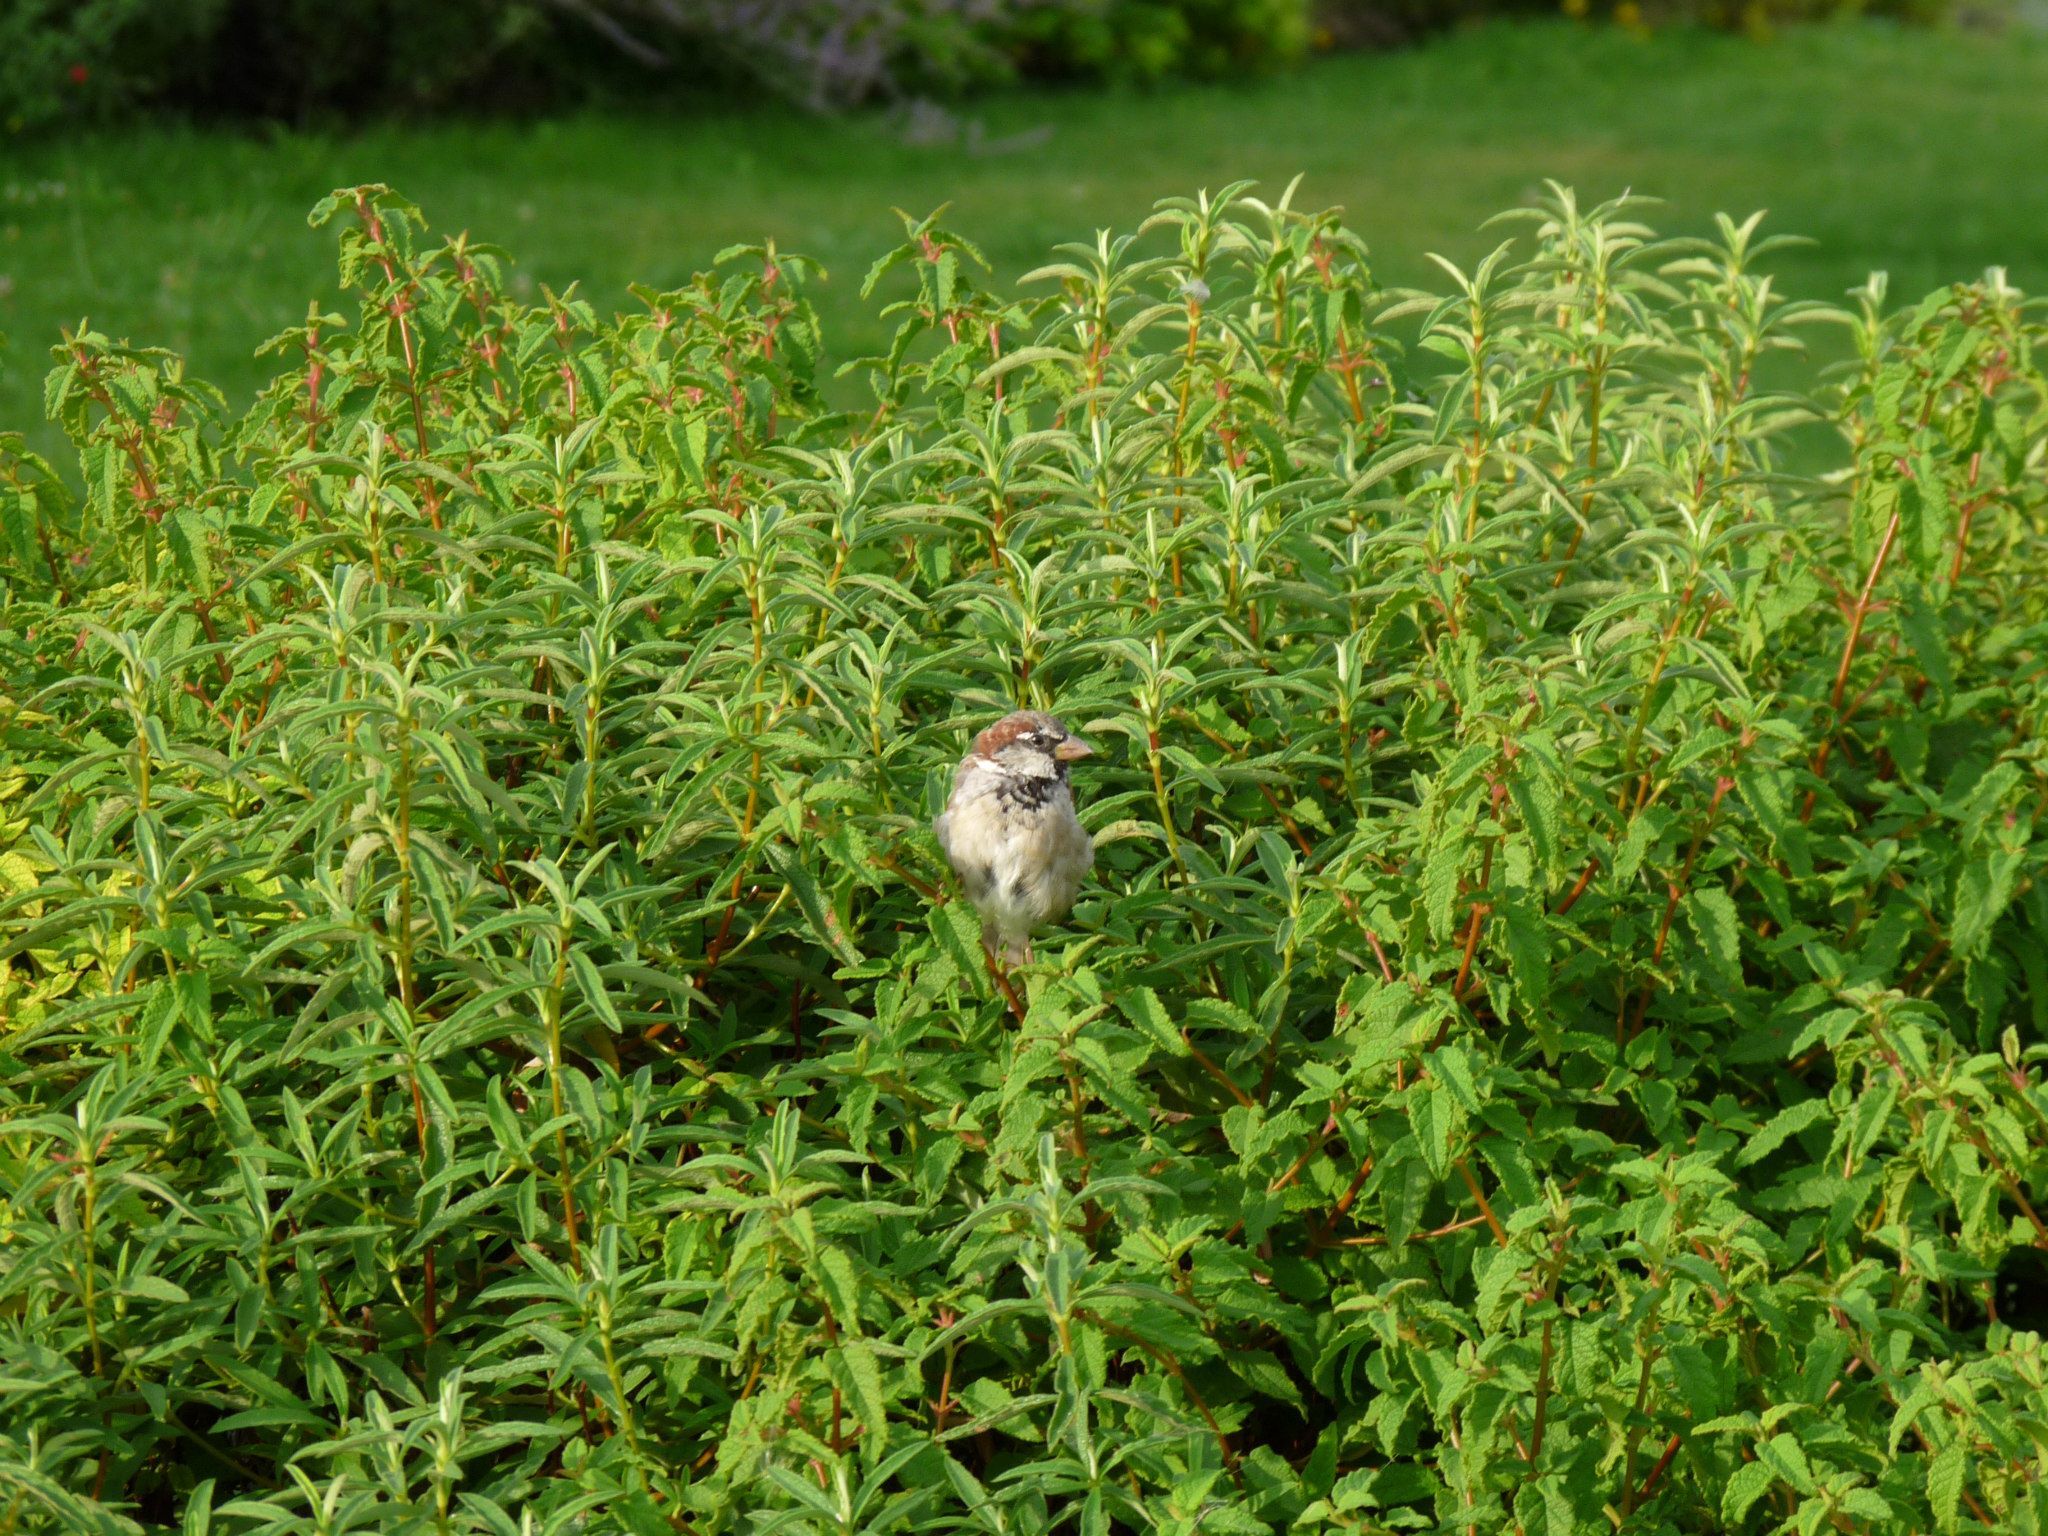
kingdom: Animalia
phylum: Chordata
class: Aves
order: Passeriformes
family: Passeridae
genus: Passer
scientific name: Passer domesticus
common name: House sparrow
